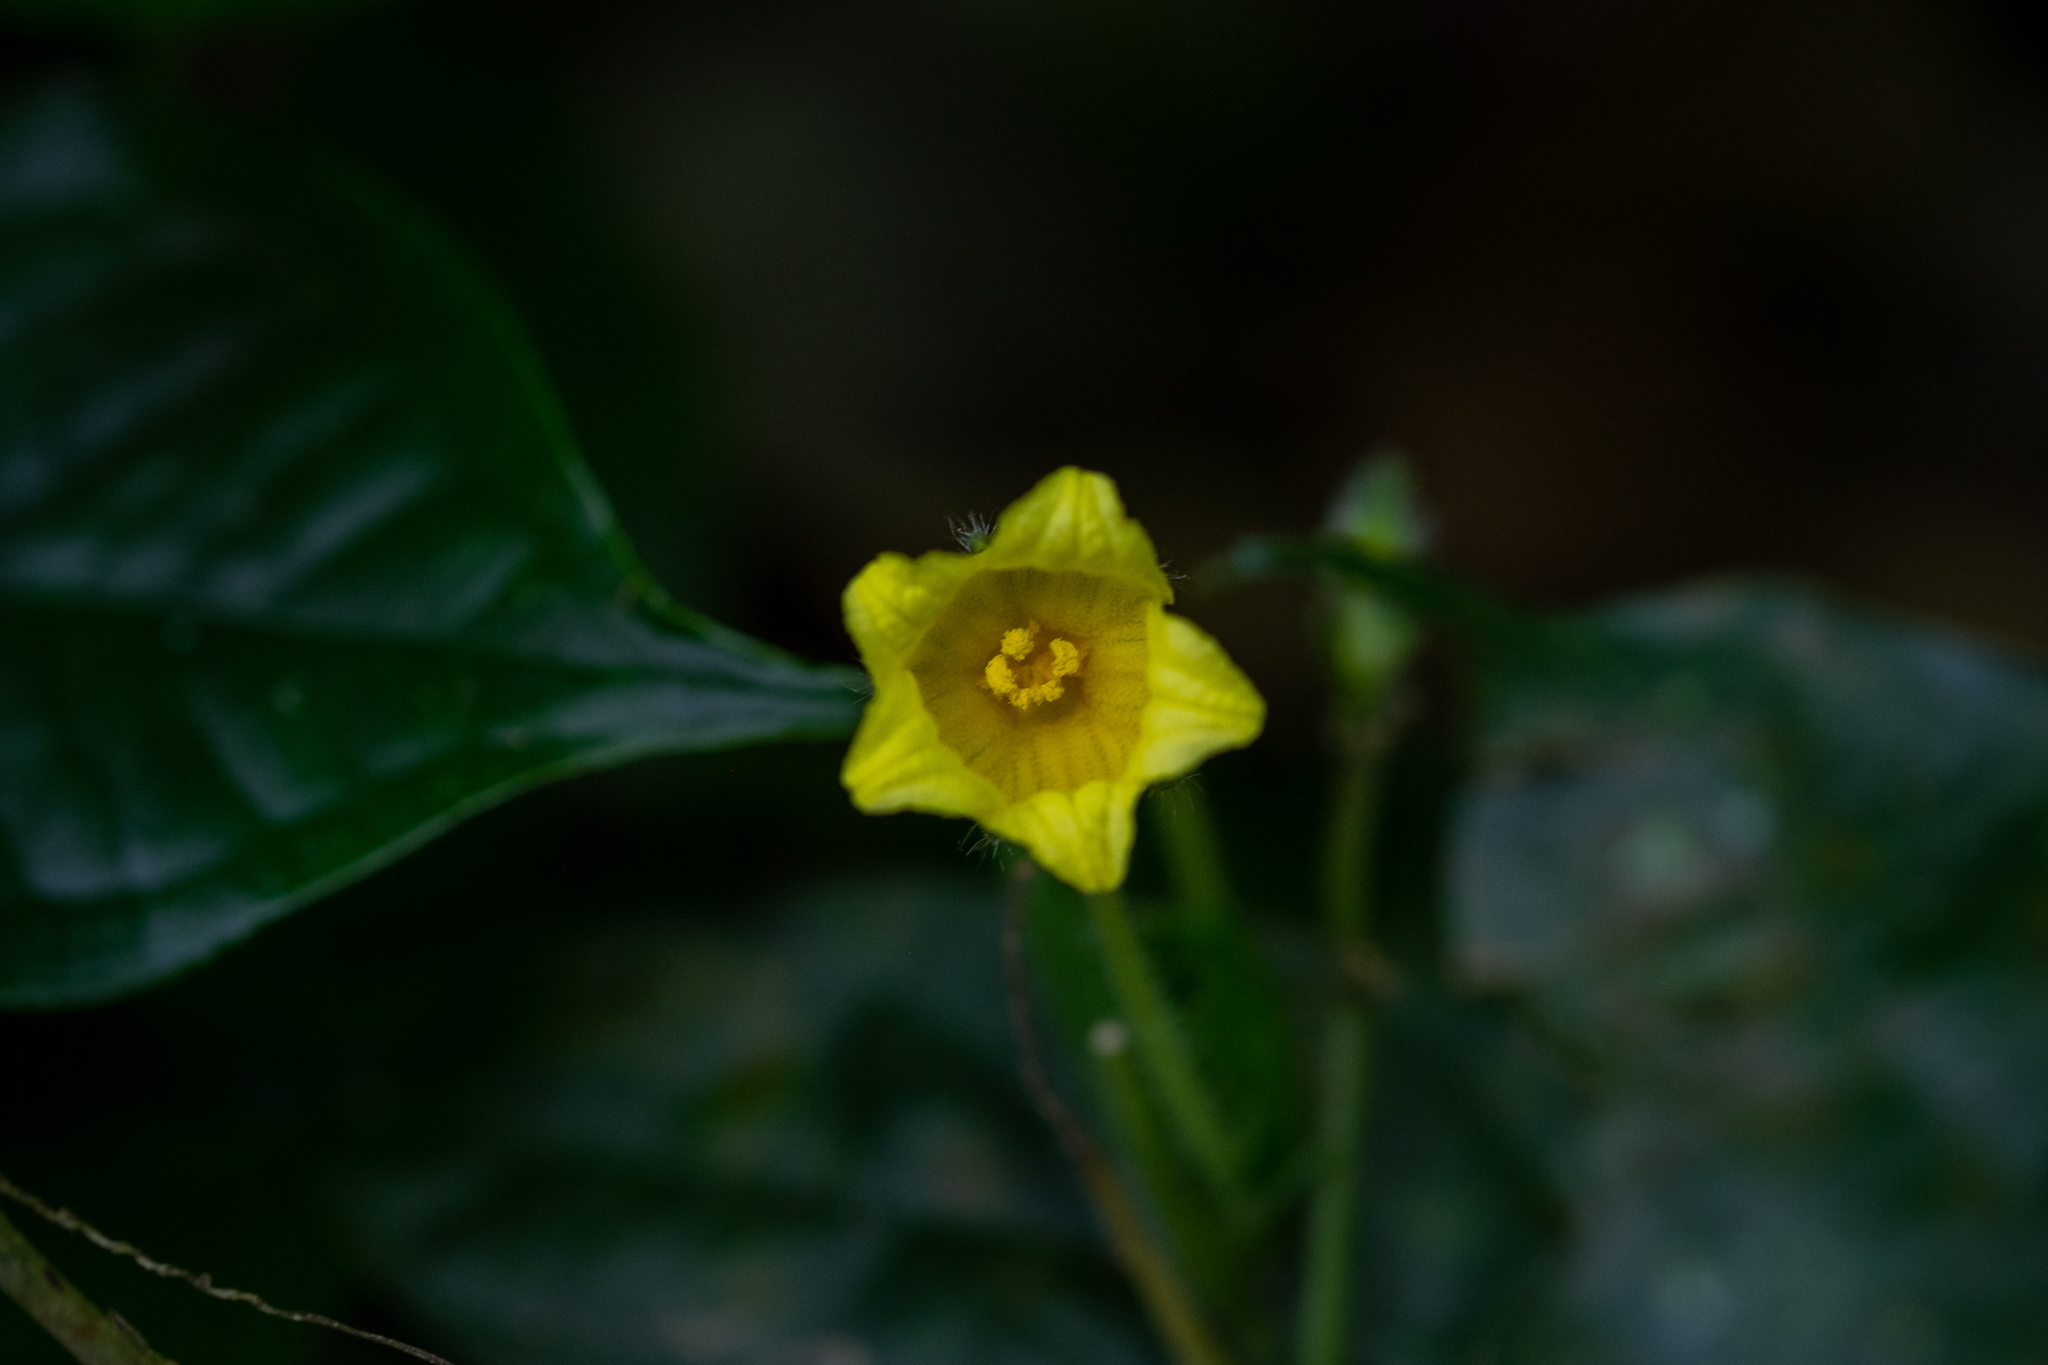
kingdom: Plantae
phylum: Tracheophyta
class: Magnoliopsida
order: Cucurbitales
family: Cucurbitaceae
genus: Thladiantha
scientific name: Thladiantha angustisepala
